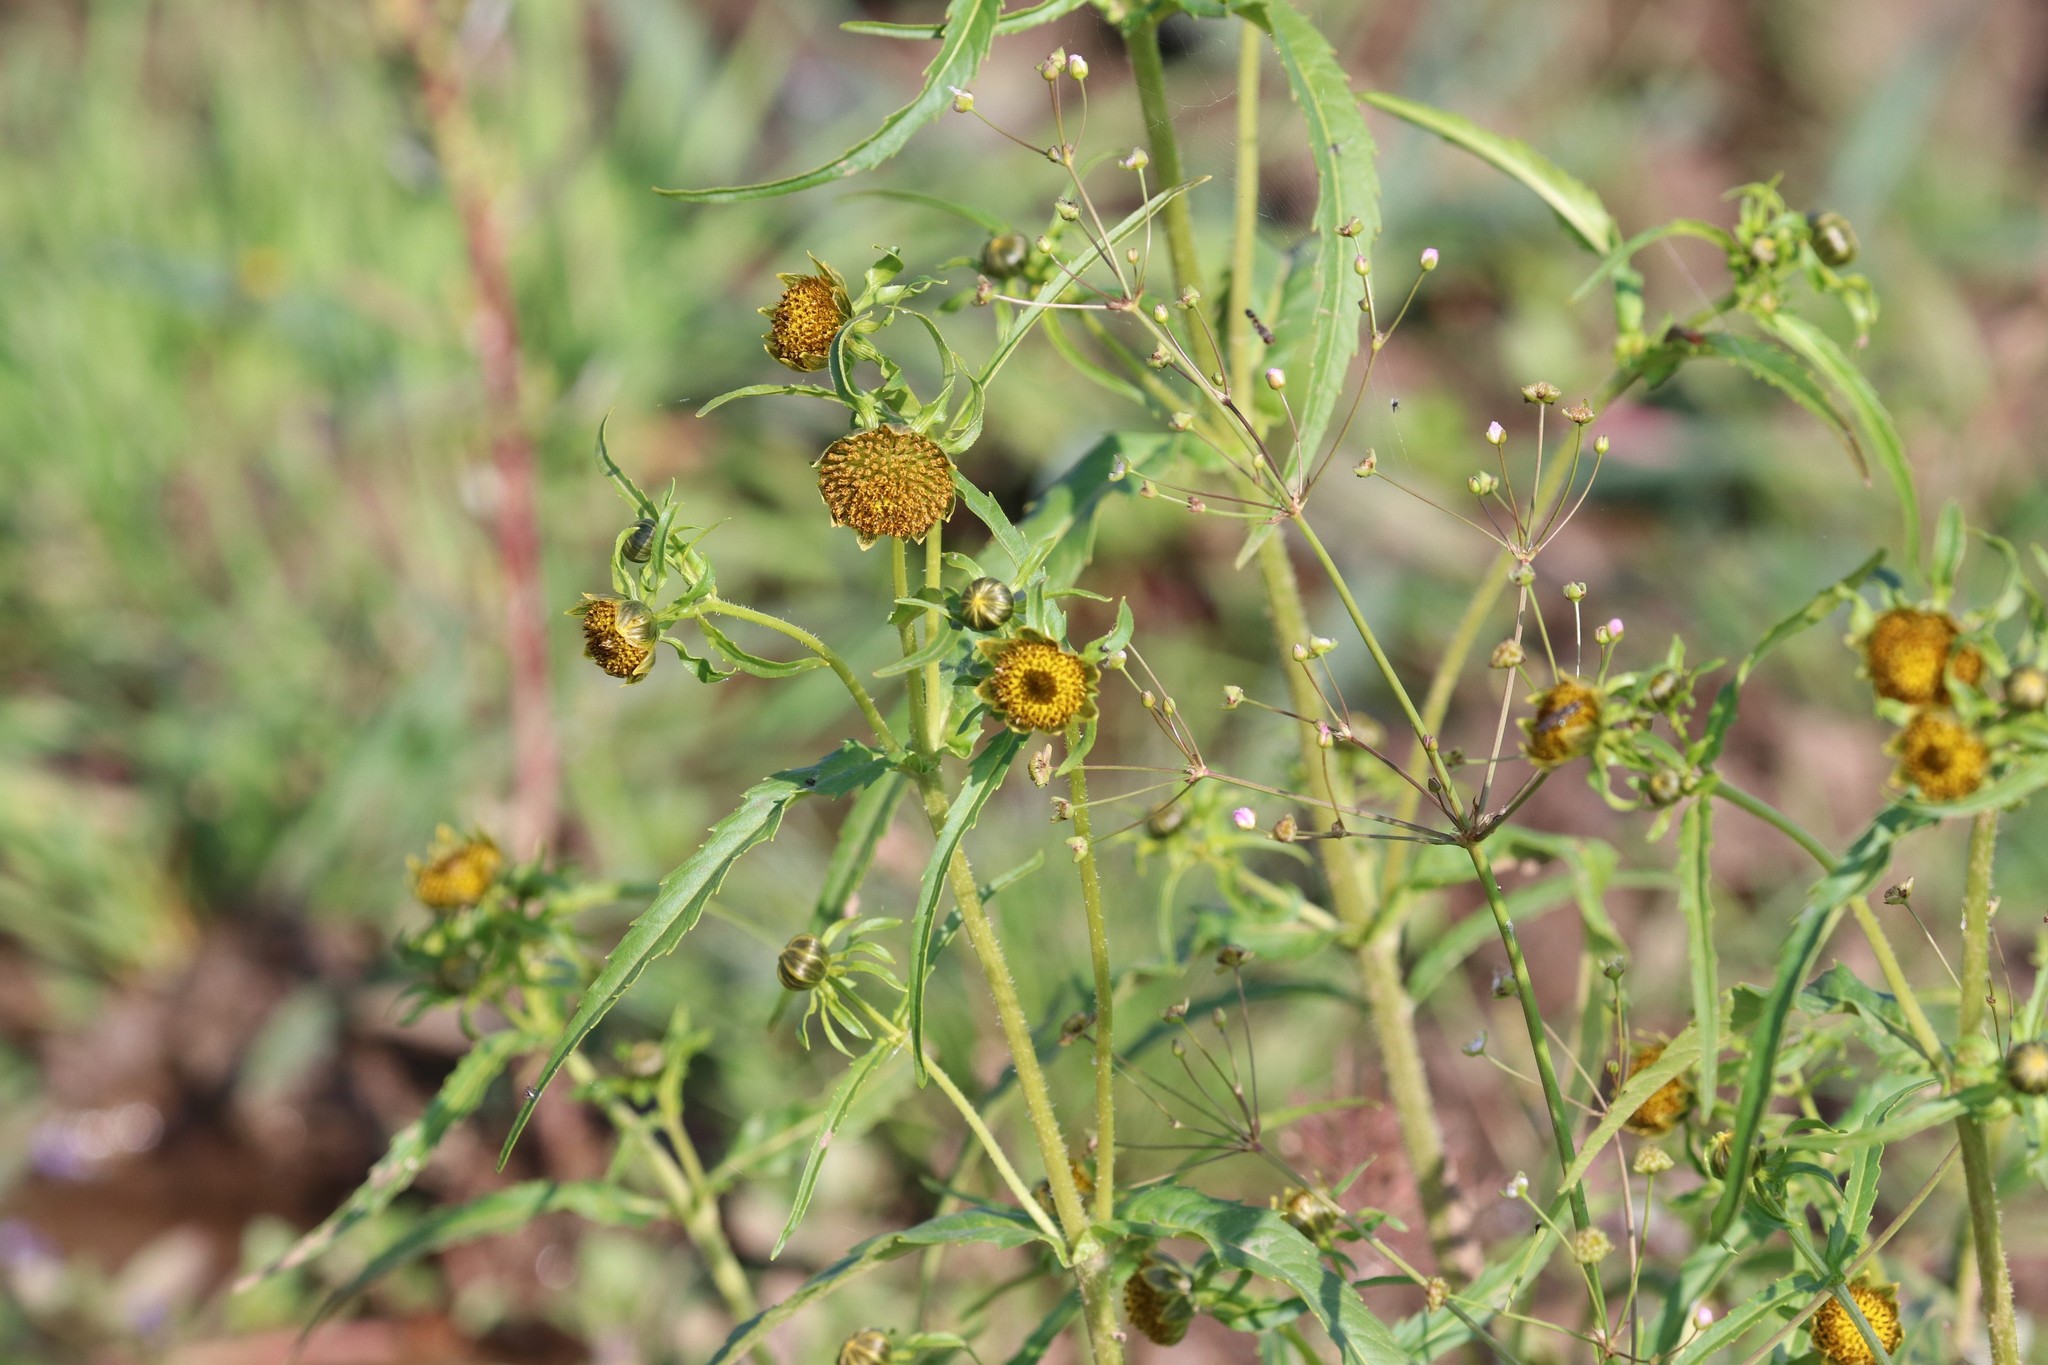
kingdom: Plantae
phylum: Tracheophyta
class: Magnoliopsida
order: Asterales
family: Asteraceae
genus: Bidens
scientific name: Bidens cernua
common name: Nodding bur-marigold
